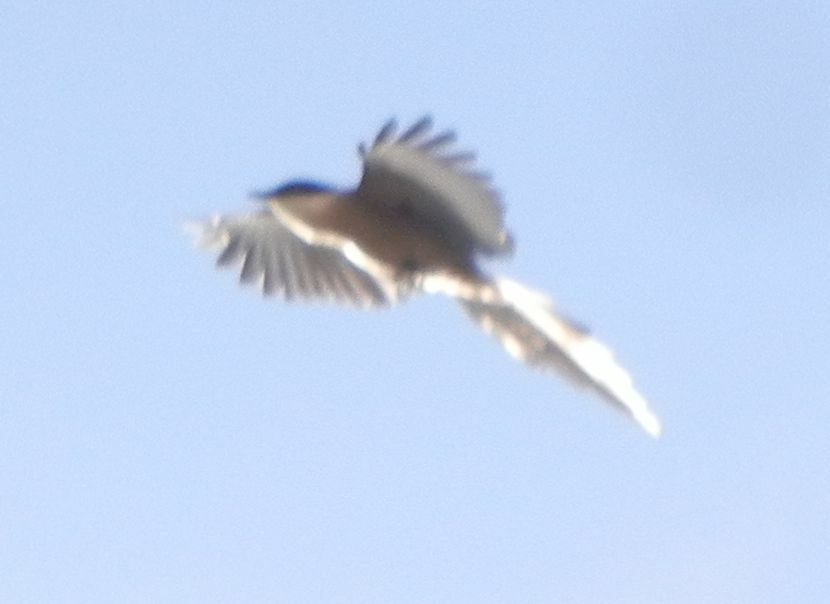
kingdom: Animalia
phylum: Chordata
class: Aves
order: Passeriformes
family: Corvidae
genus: Cyanopica
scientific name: Cyanopica cooki
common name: Iberian magpie
